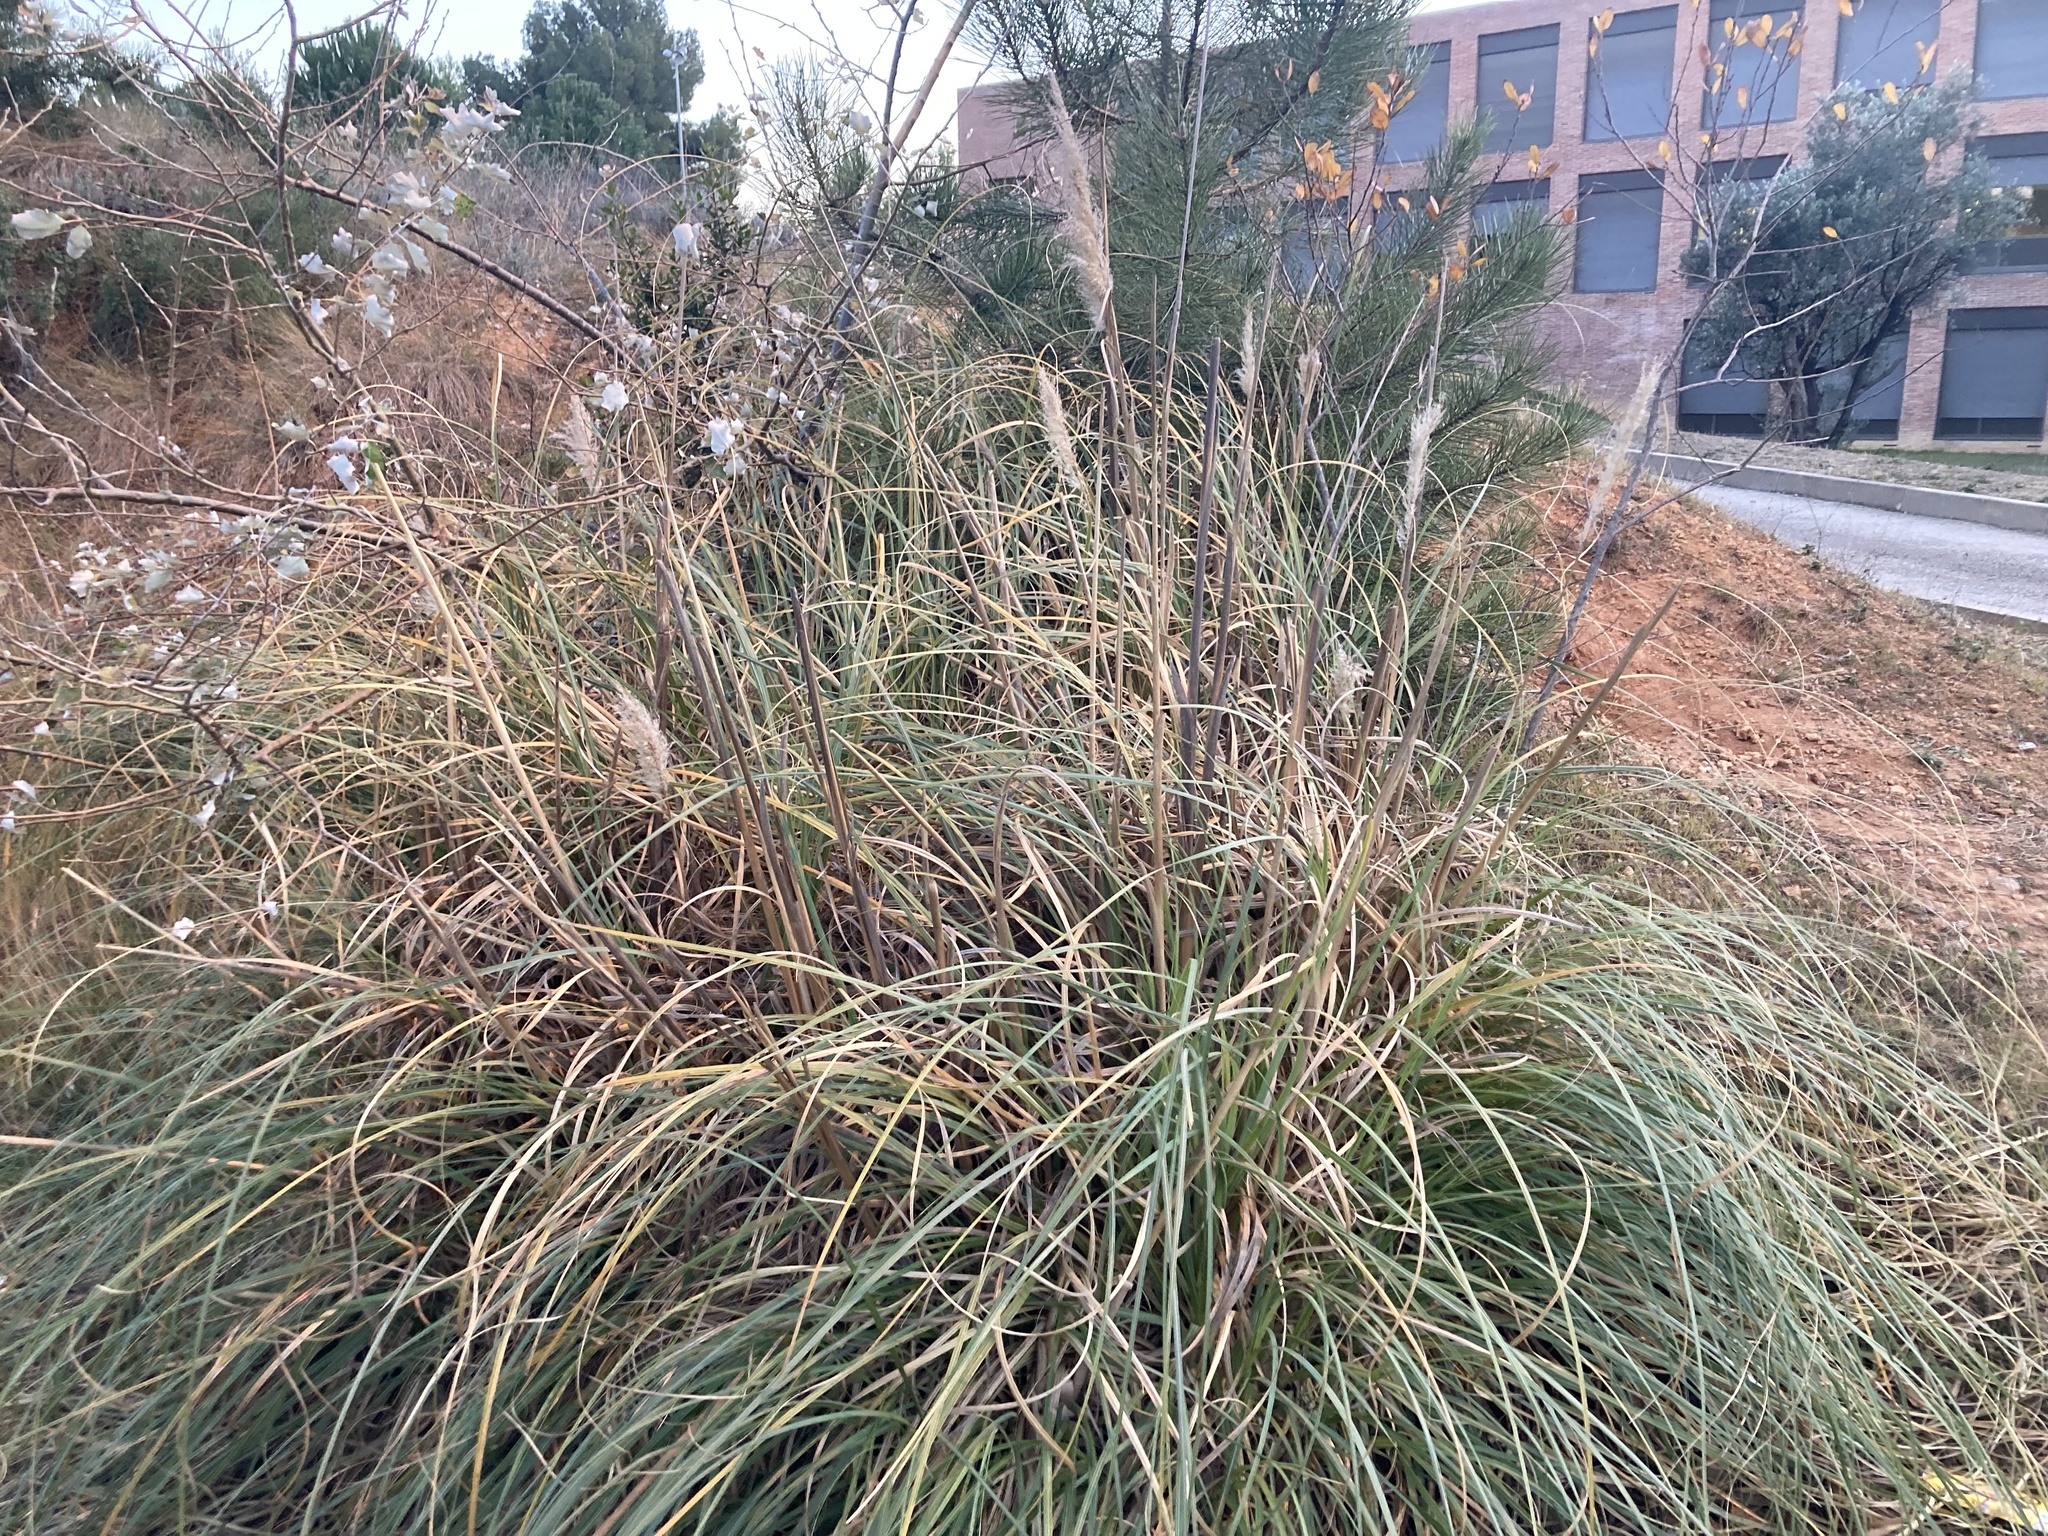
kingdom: Plantae
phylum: Tracheophyta
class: Liliopsida
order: Poales
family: Poaceae
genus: Cortaderia
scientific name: Cortaderia selloana
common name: Uruguayan pampas grass
